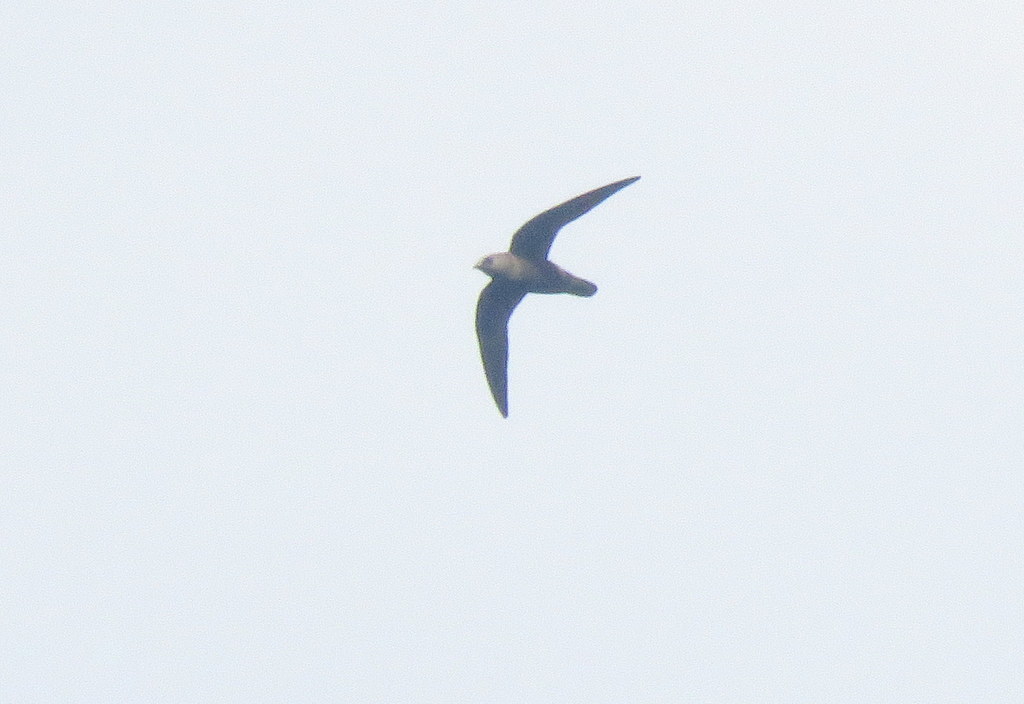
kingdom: Animalia
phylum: Chordata
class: Aves
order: Apodiformes
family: Apodidae
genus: Cypseloides
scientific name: Cypseloides senex
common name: Great dusky swift
